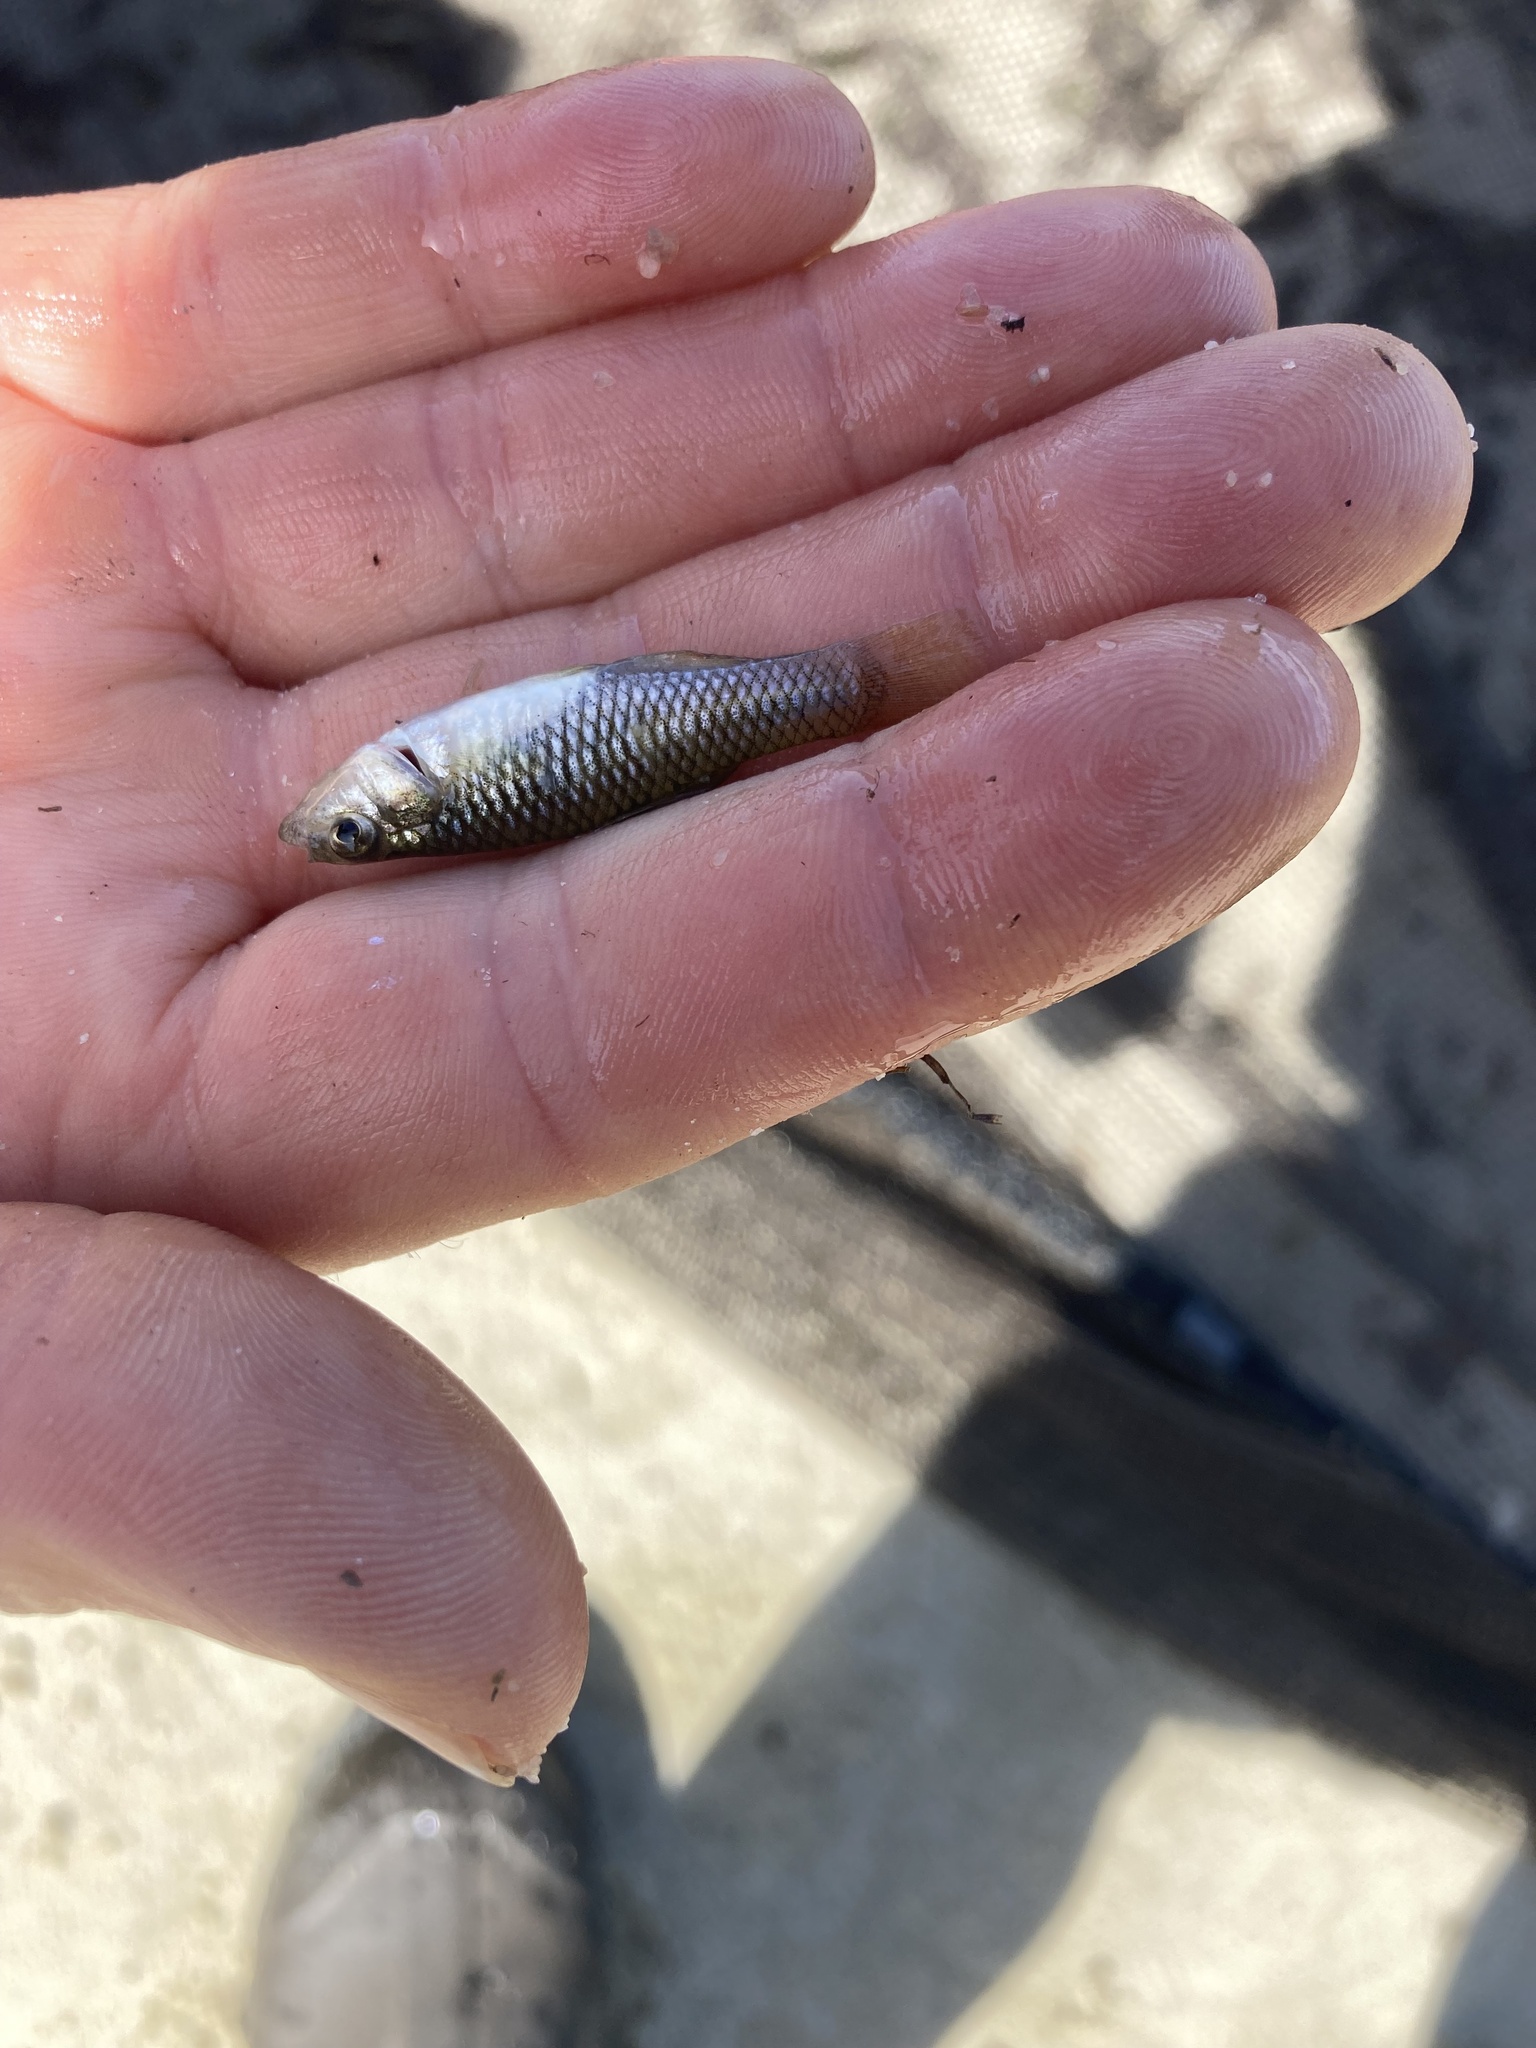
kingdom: Animalia
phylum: Chordata
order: Cyprinodontiformes
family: Fundulidae
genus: Lucania
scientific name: Lucania parva
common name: Rainwater killifish
